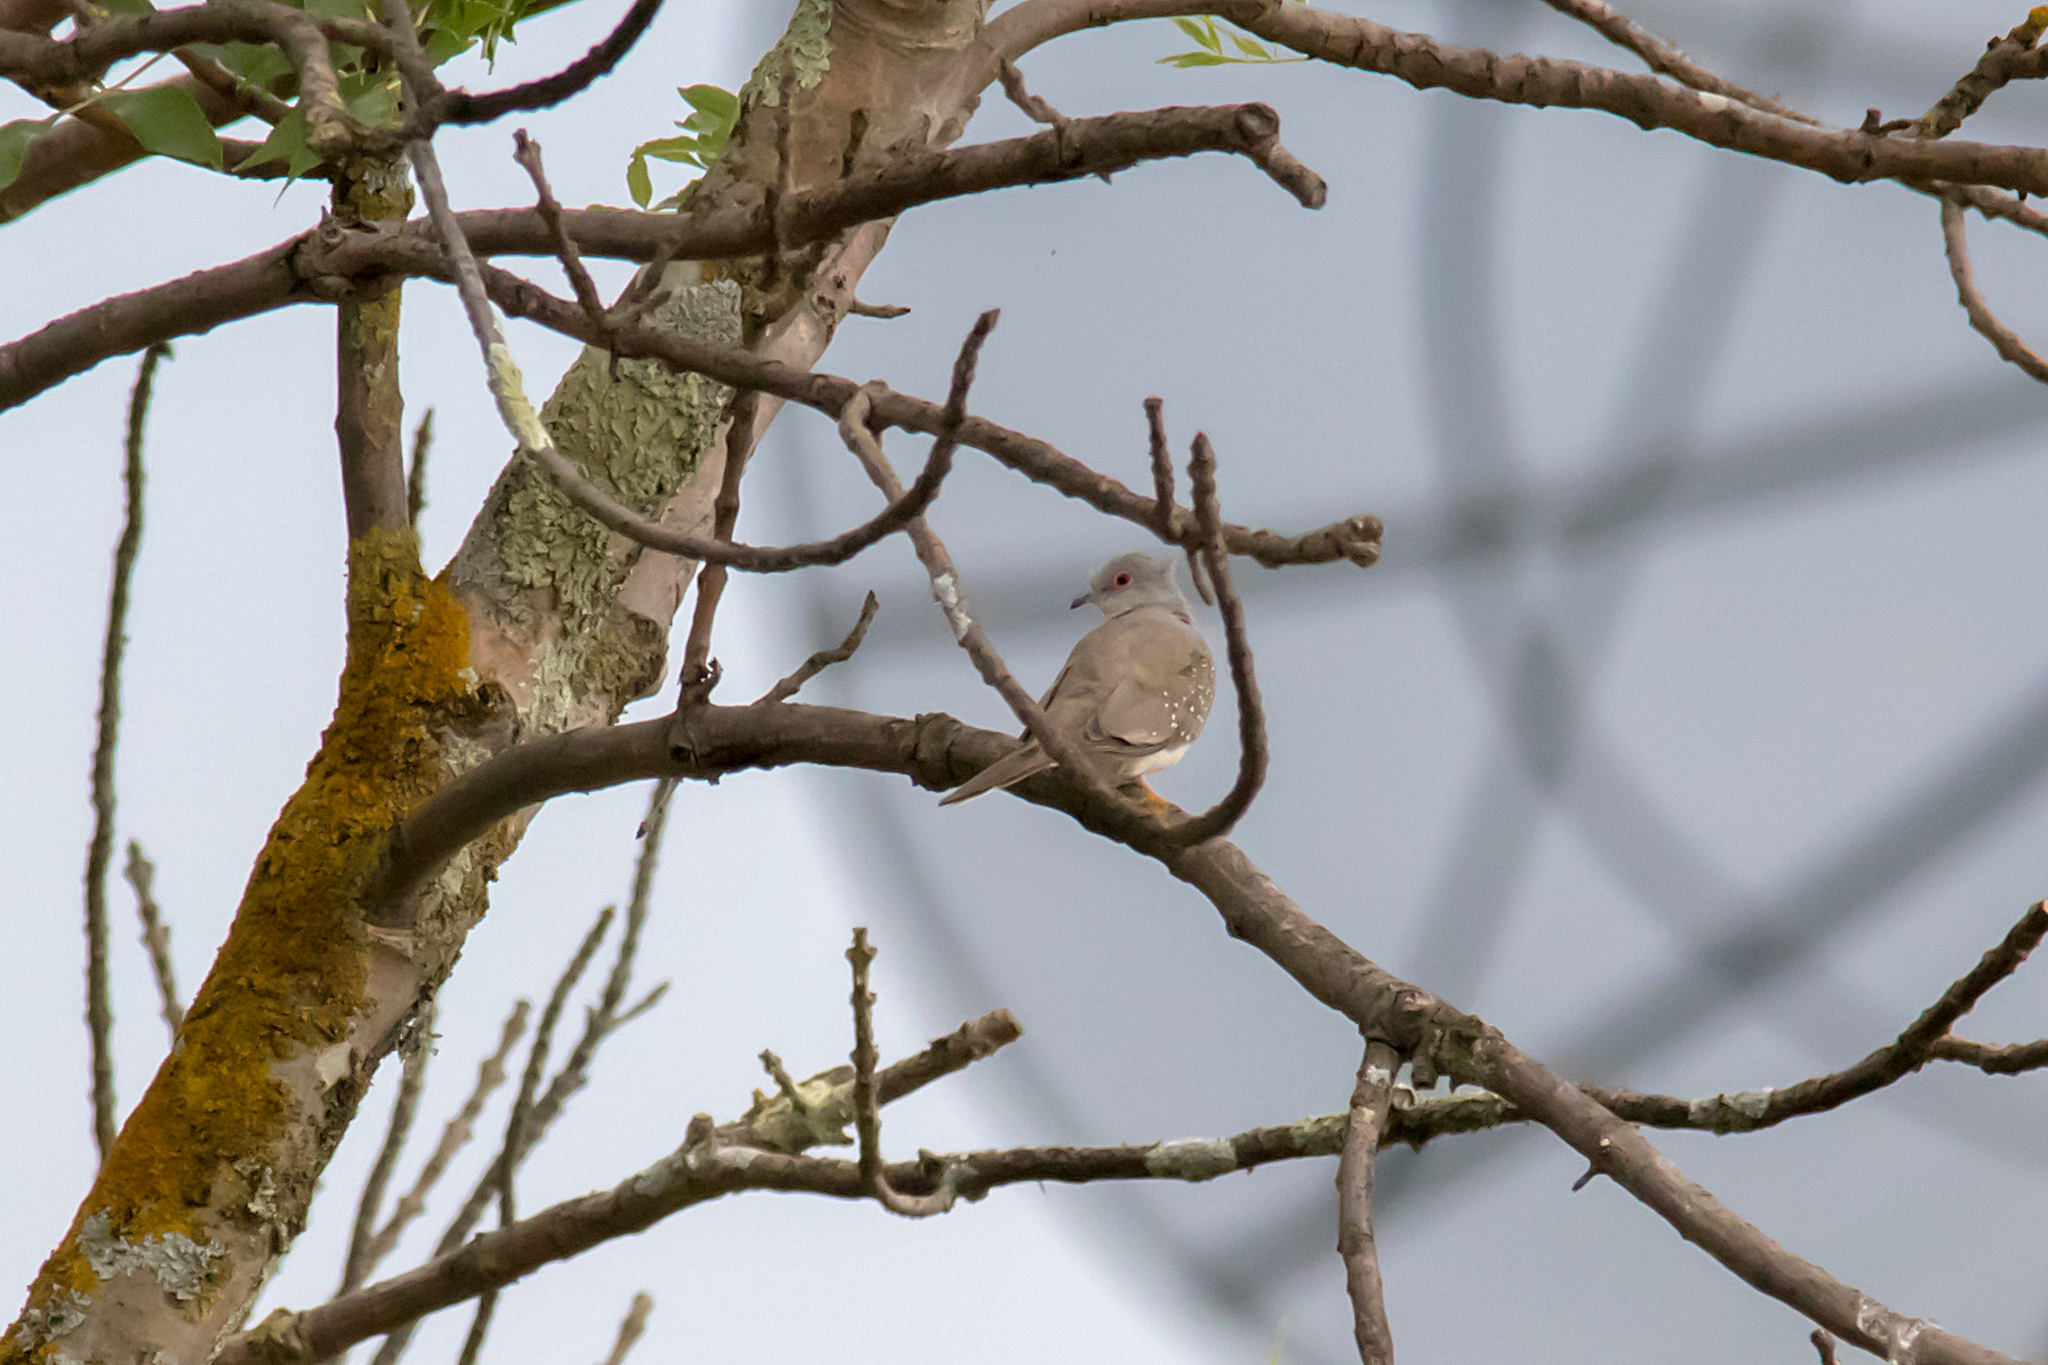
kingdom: Animalia
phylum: Chordata
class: Aves
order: Columbiformes
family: Columbidae
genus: Geopelia
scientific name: Geopelia cuneata
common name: Diamond dove
